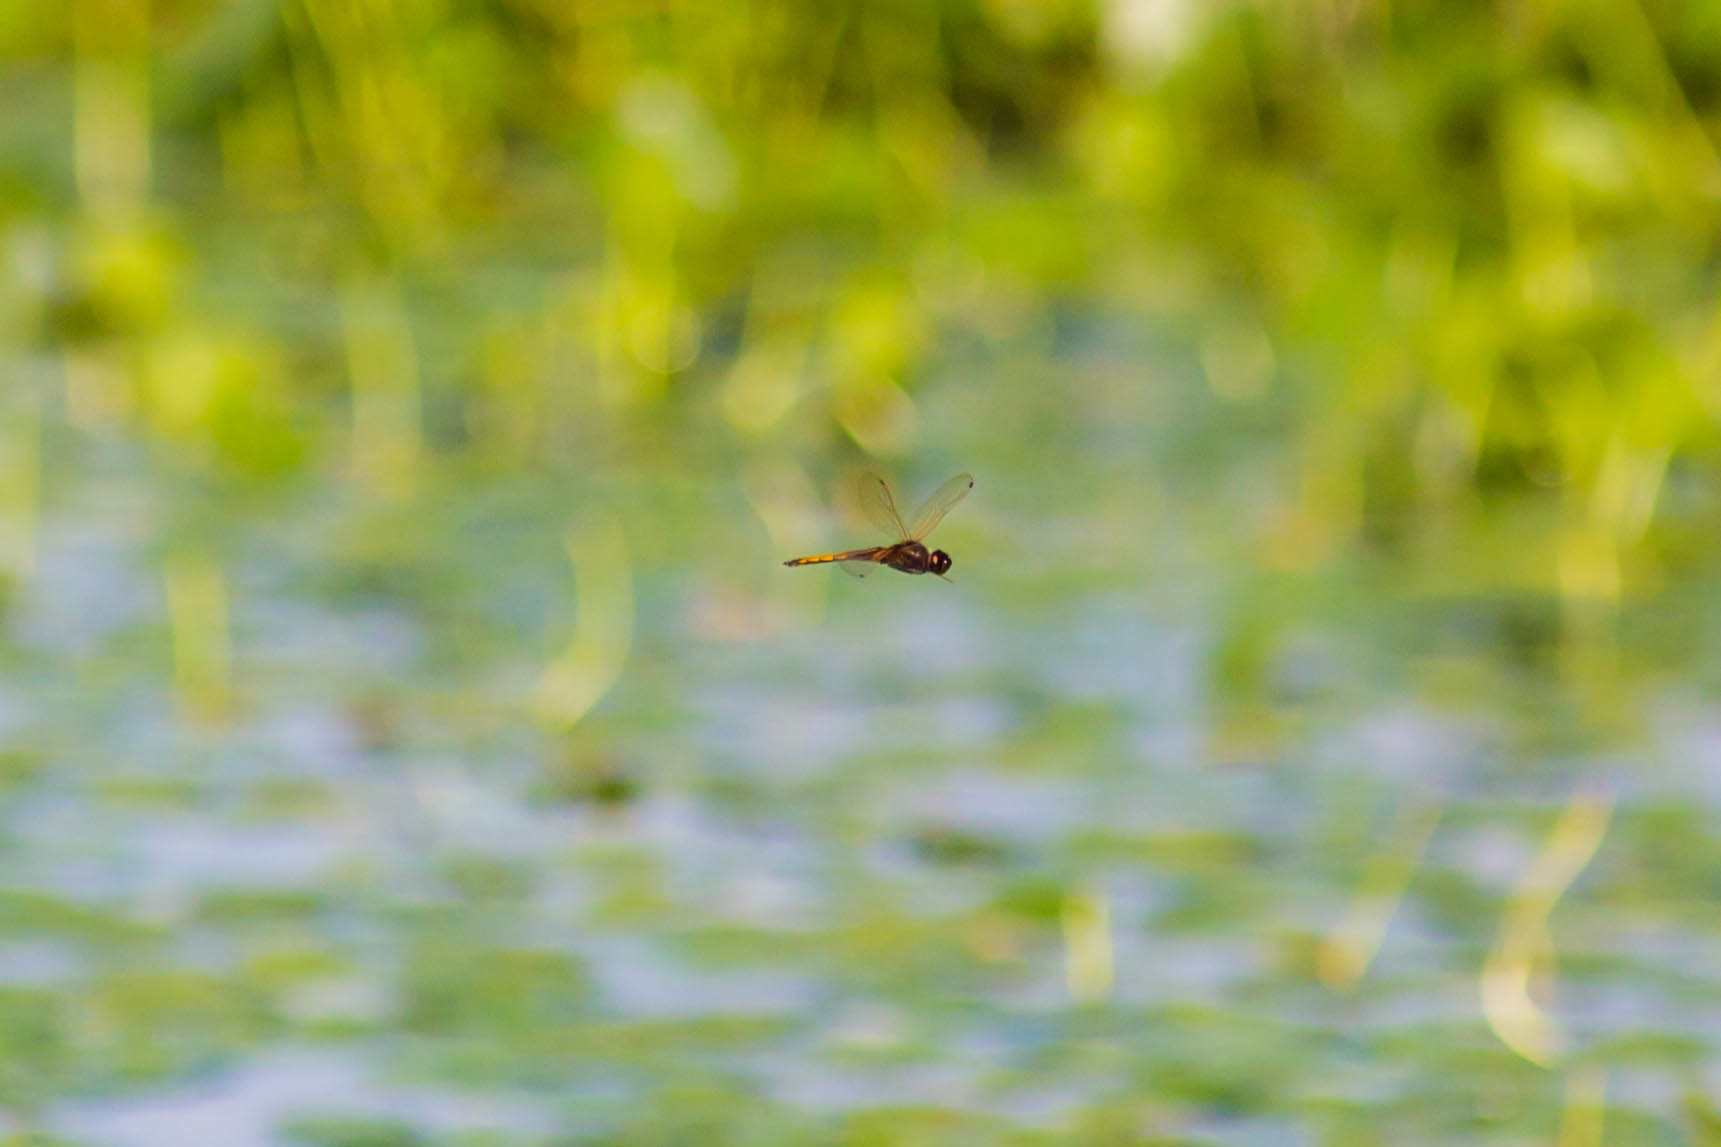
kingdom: Animalia
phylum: Arthropoda
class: Insecta
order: Odonata
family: Libellulidae
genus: Miathyria
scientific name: Miathyria marcella
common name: Hyacinth glider
